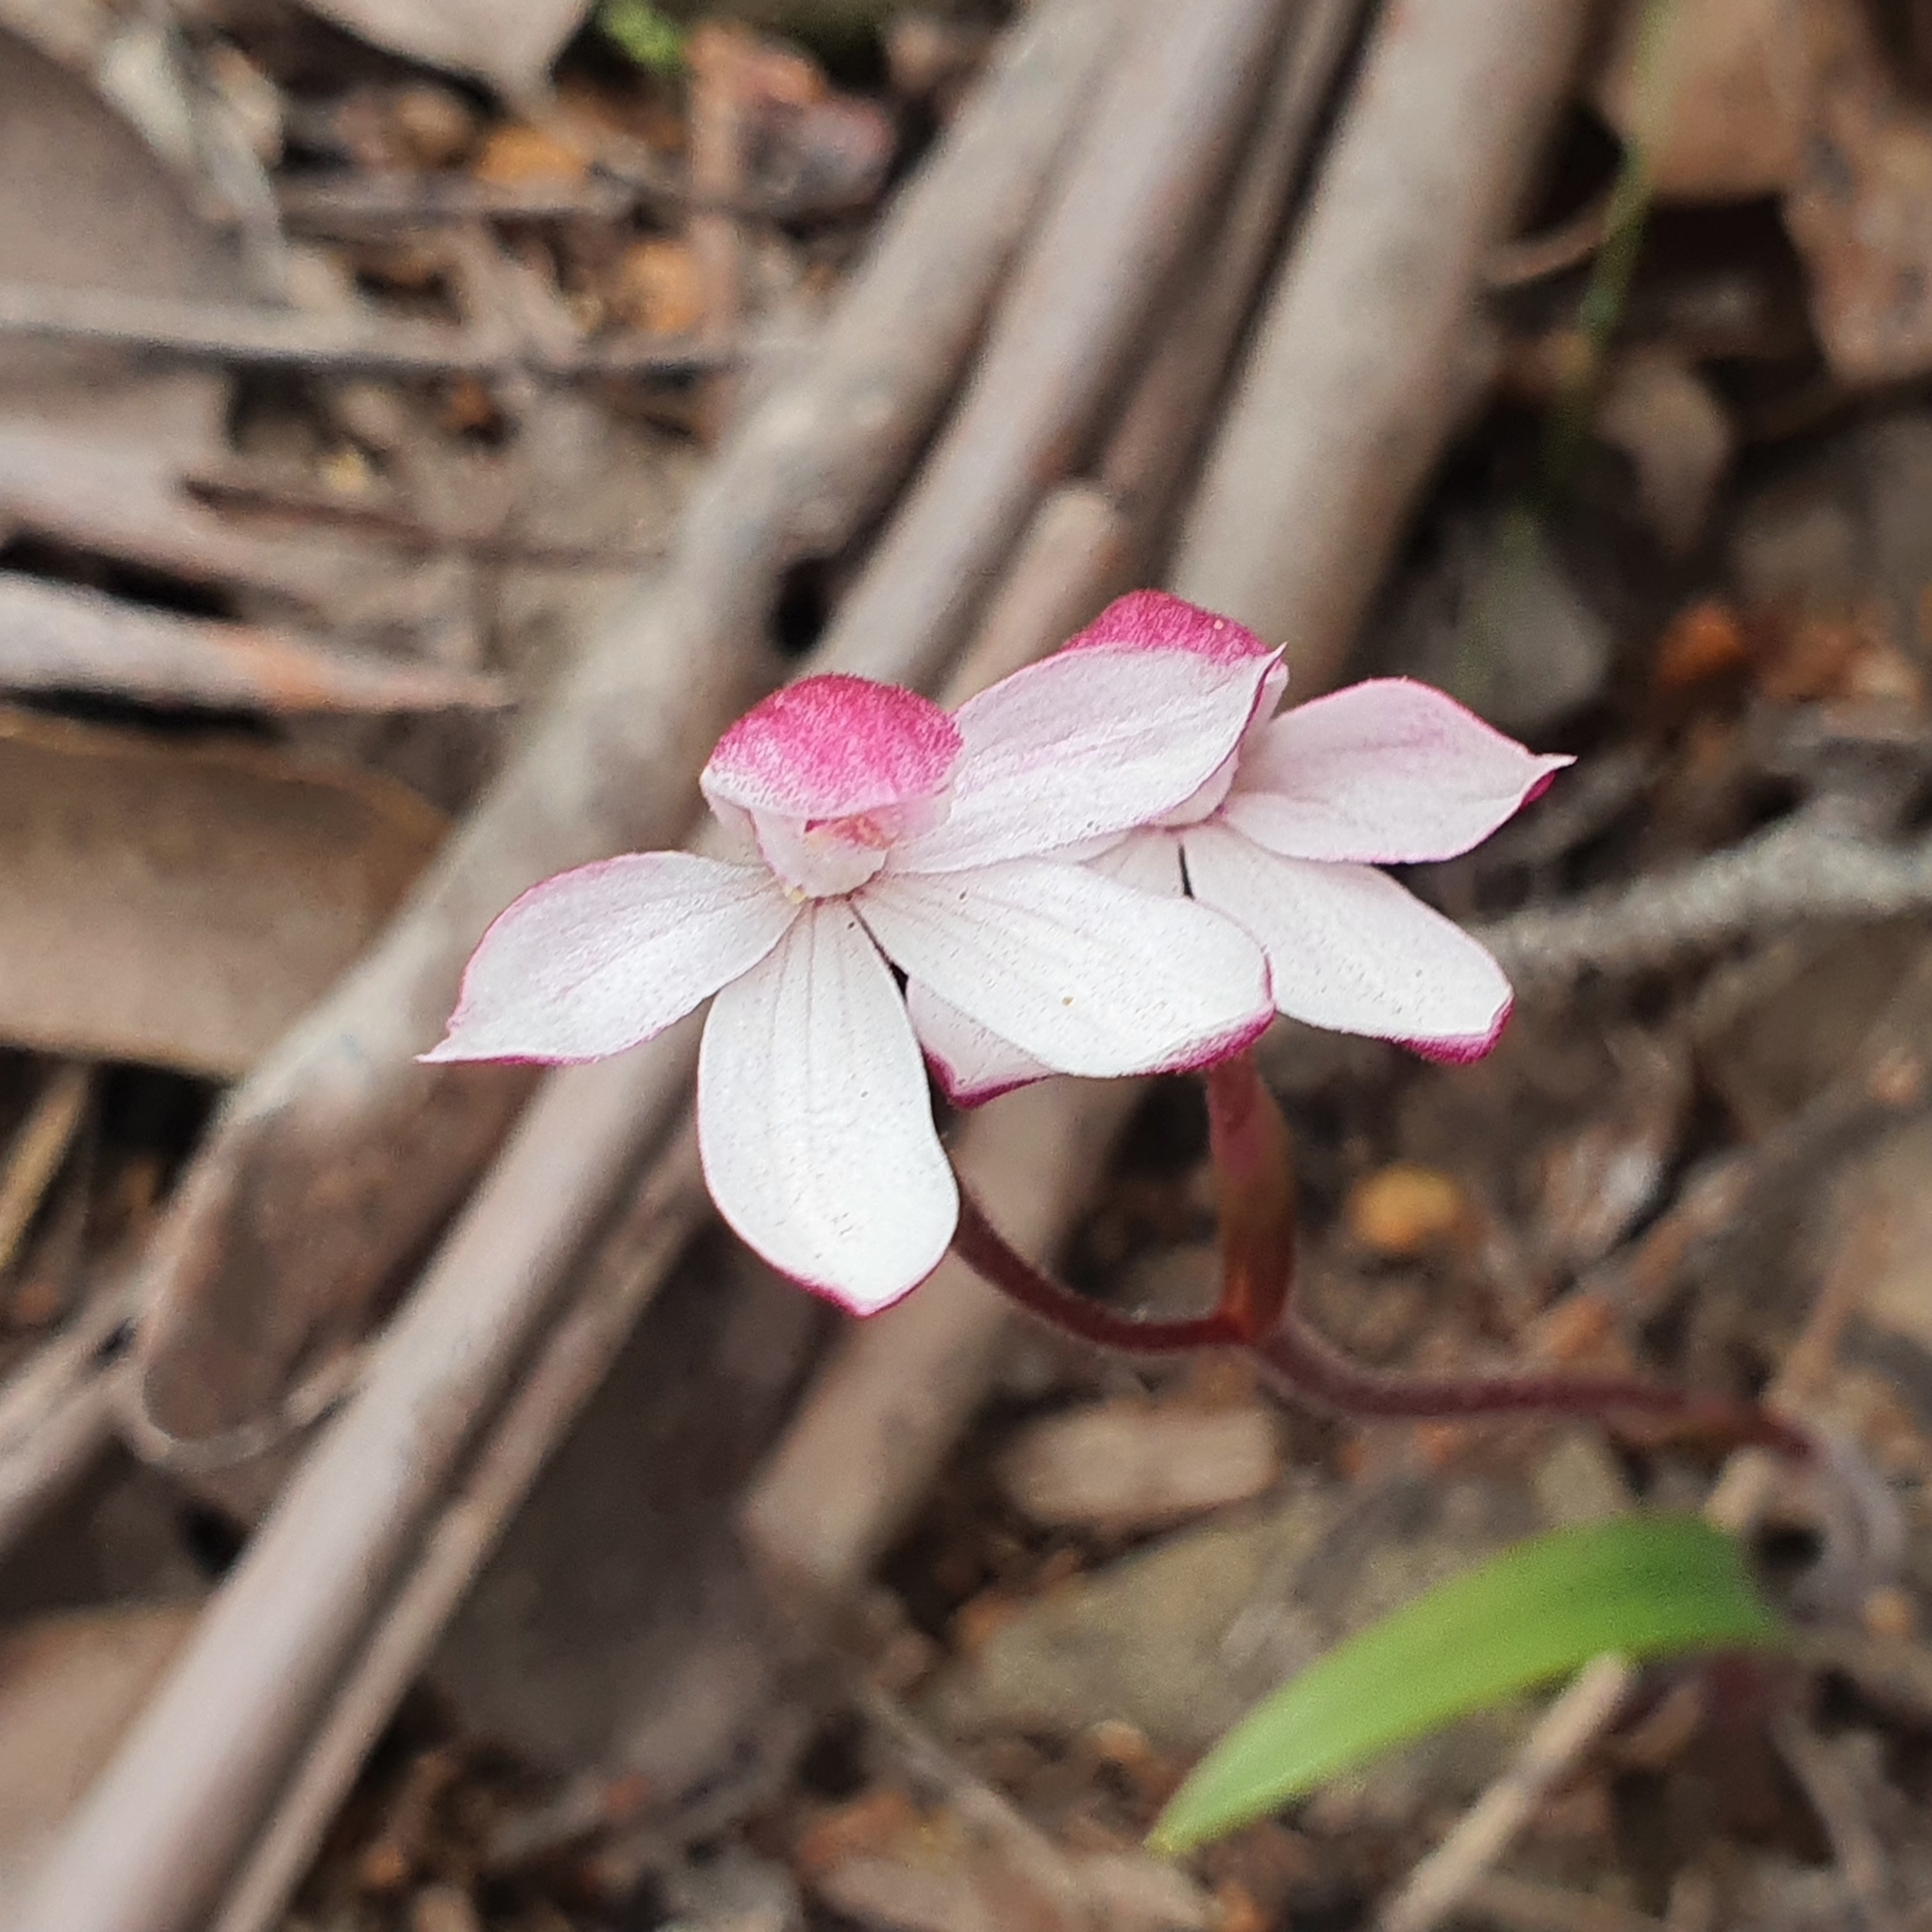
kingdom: Plantae
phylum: Tracheophyta
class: Liliopsida
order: Asparagales
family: Orchidaceae
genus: Caladenia
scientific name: Caladenia alpina
